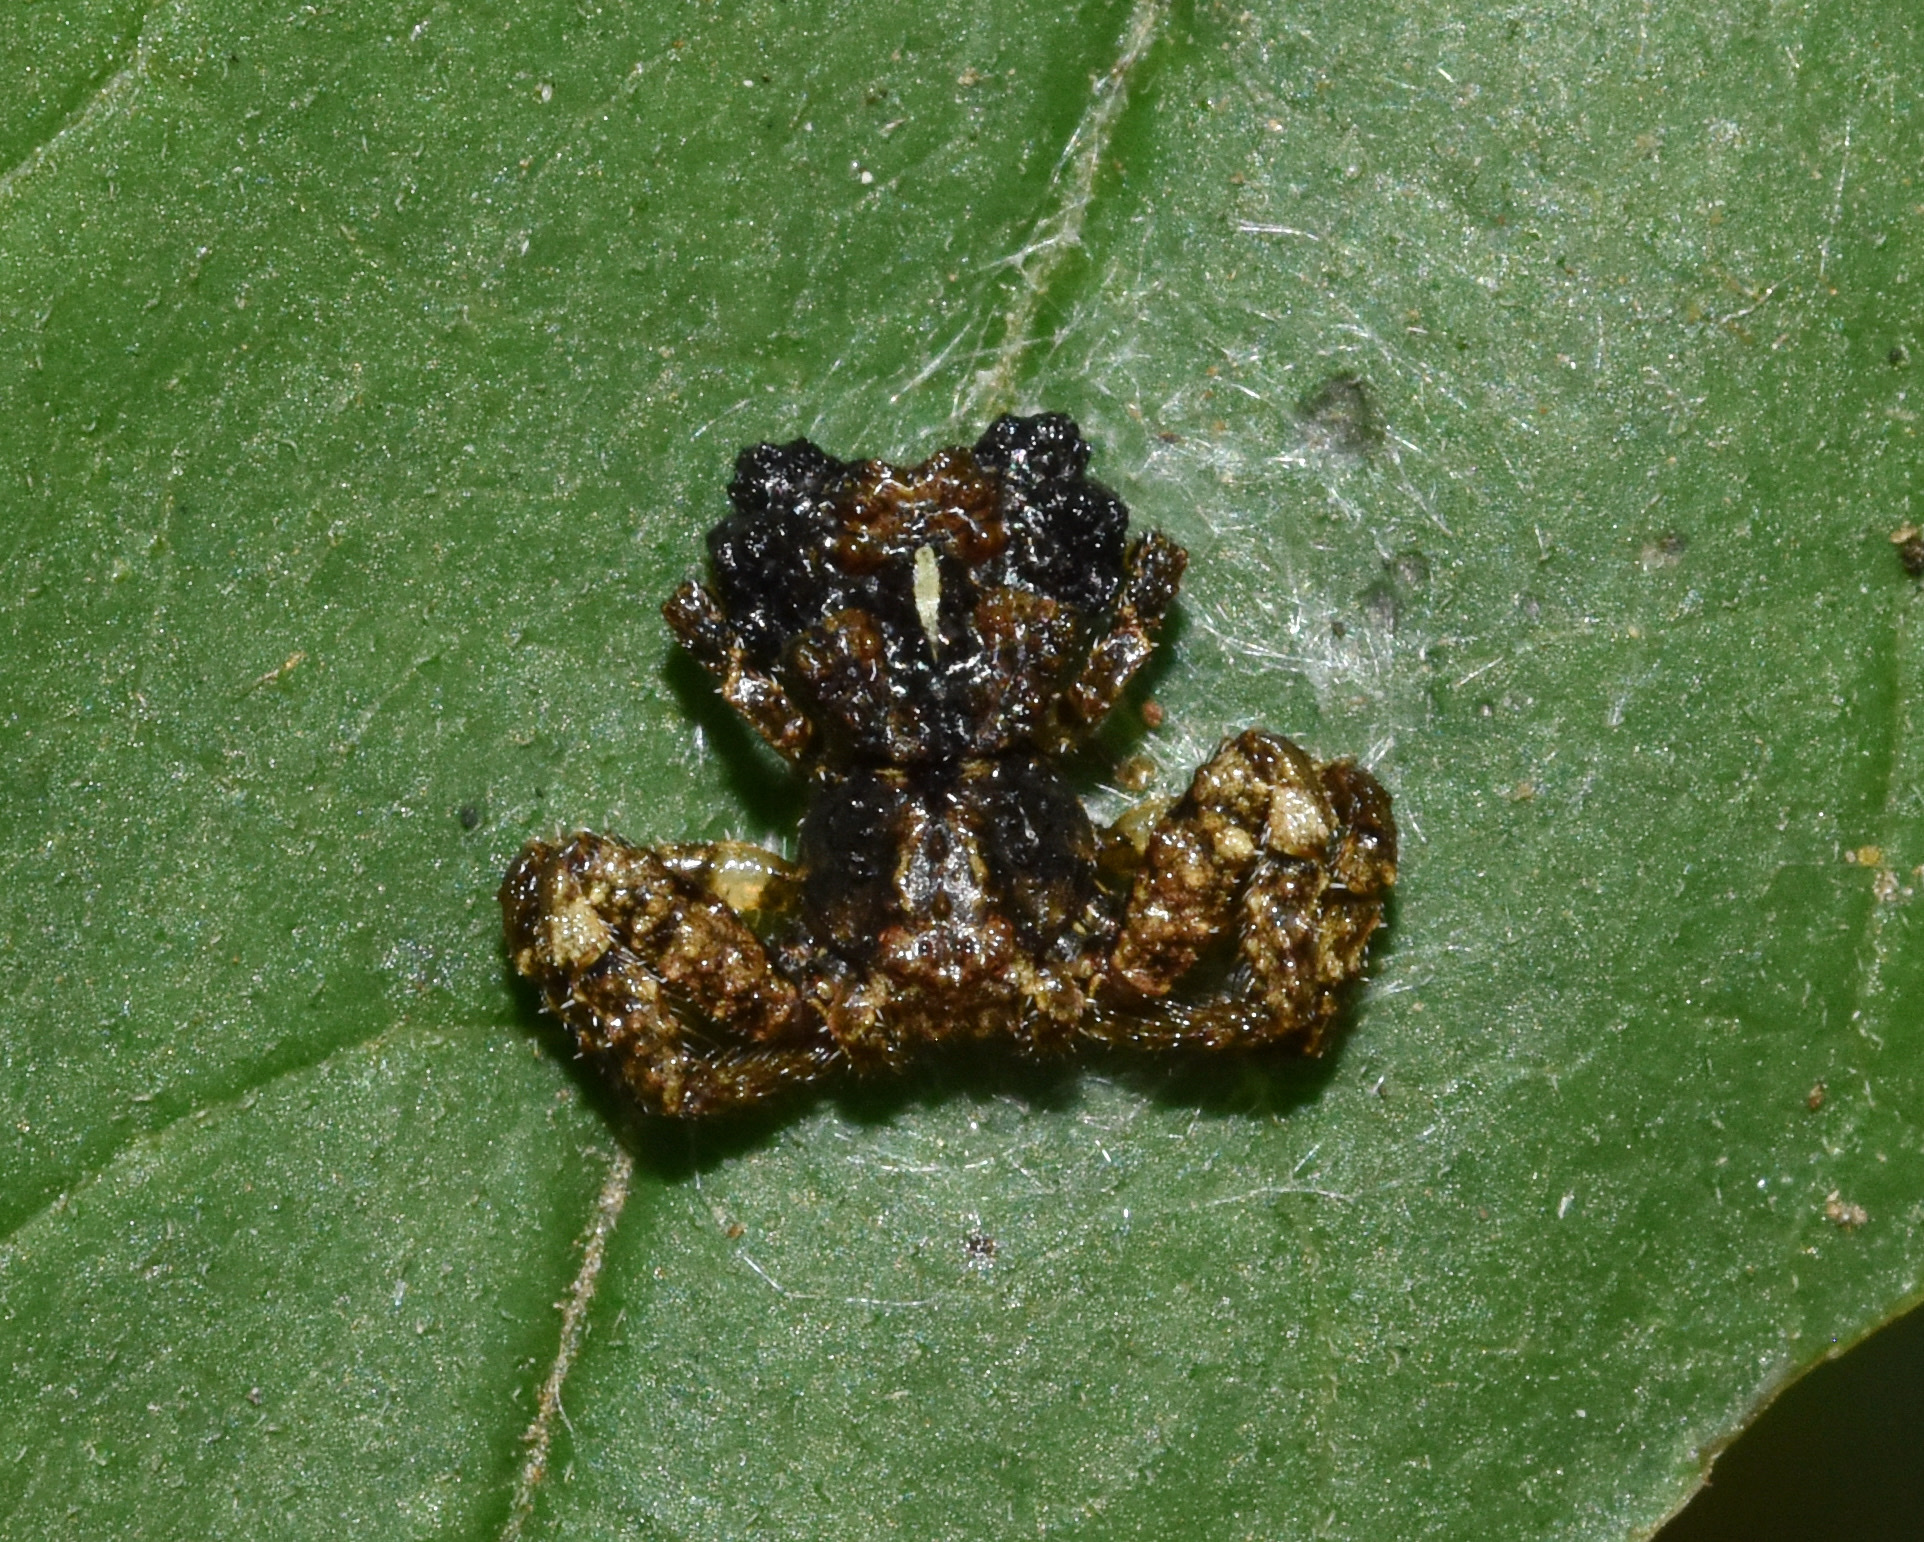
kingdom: Animalia
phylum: Arthropoda
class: Arachnida
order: Araneae
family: Thomisidae
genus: Phrynarachne
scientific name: Phrynarachne rugosa
